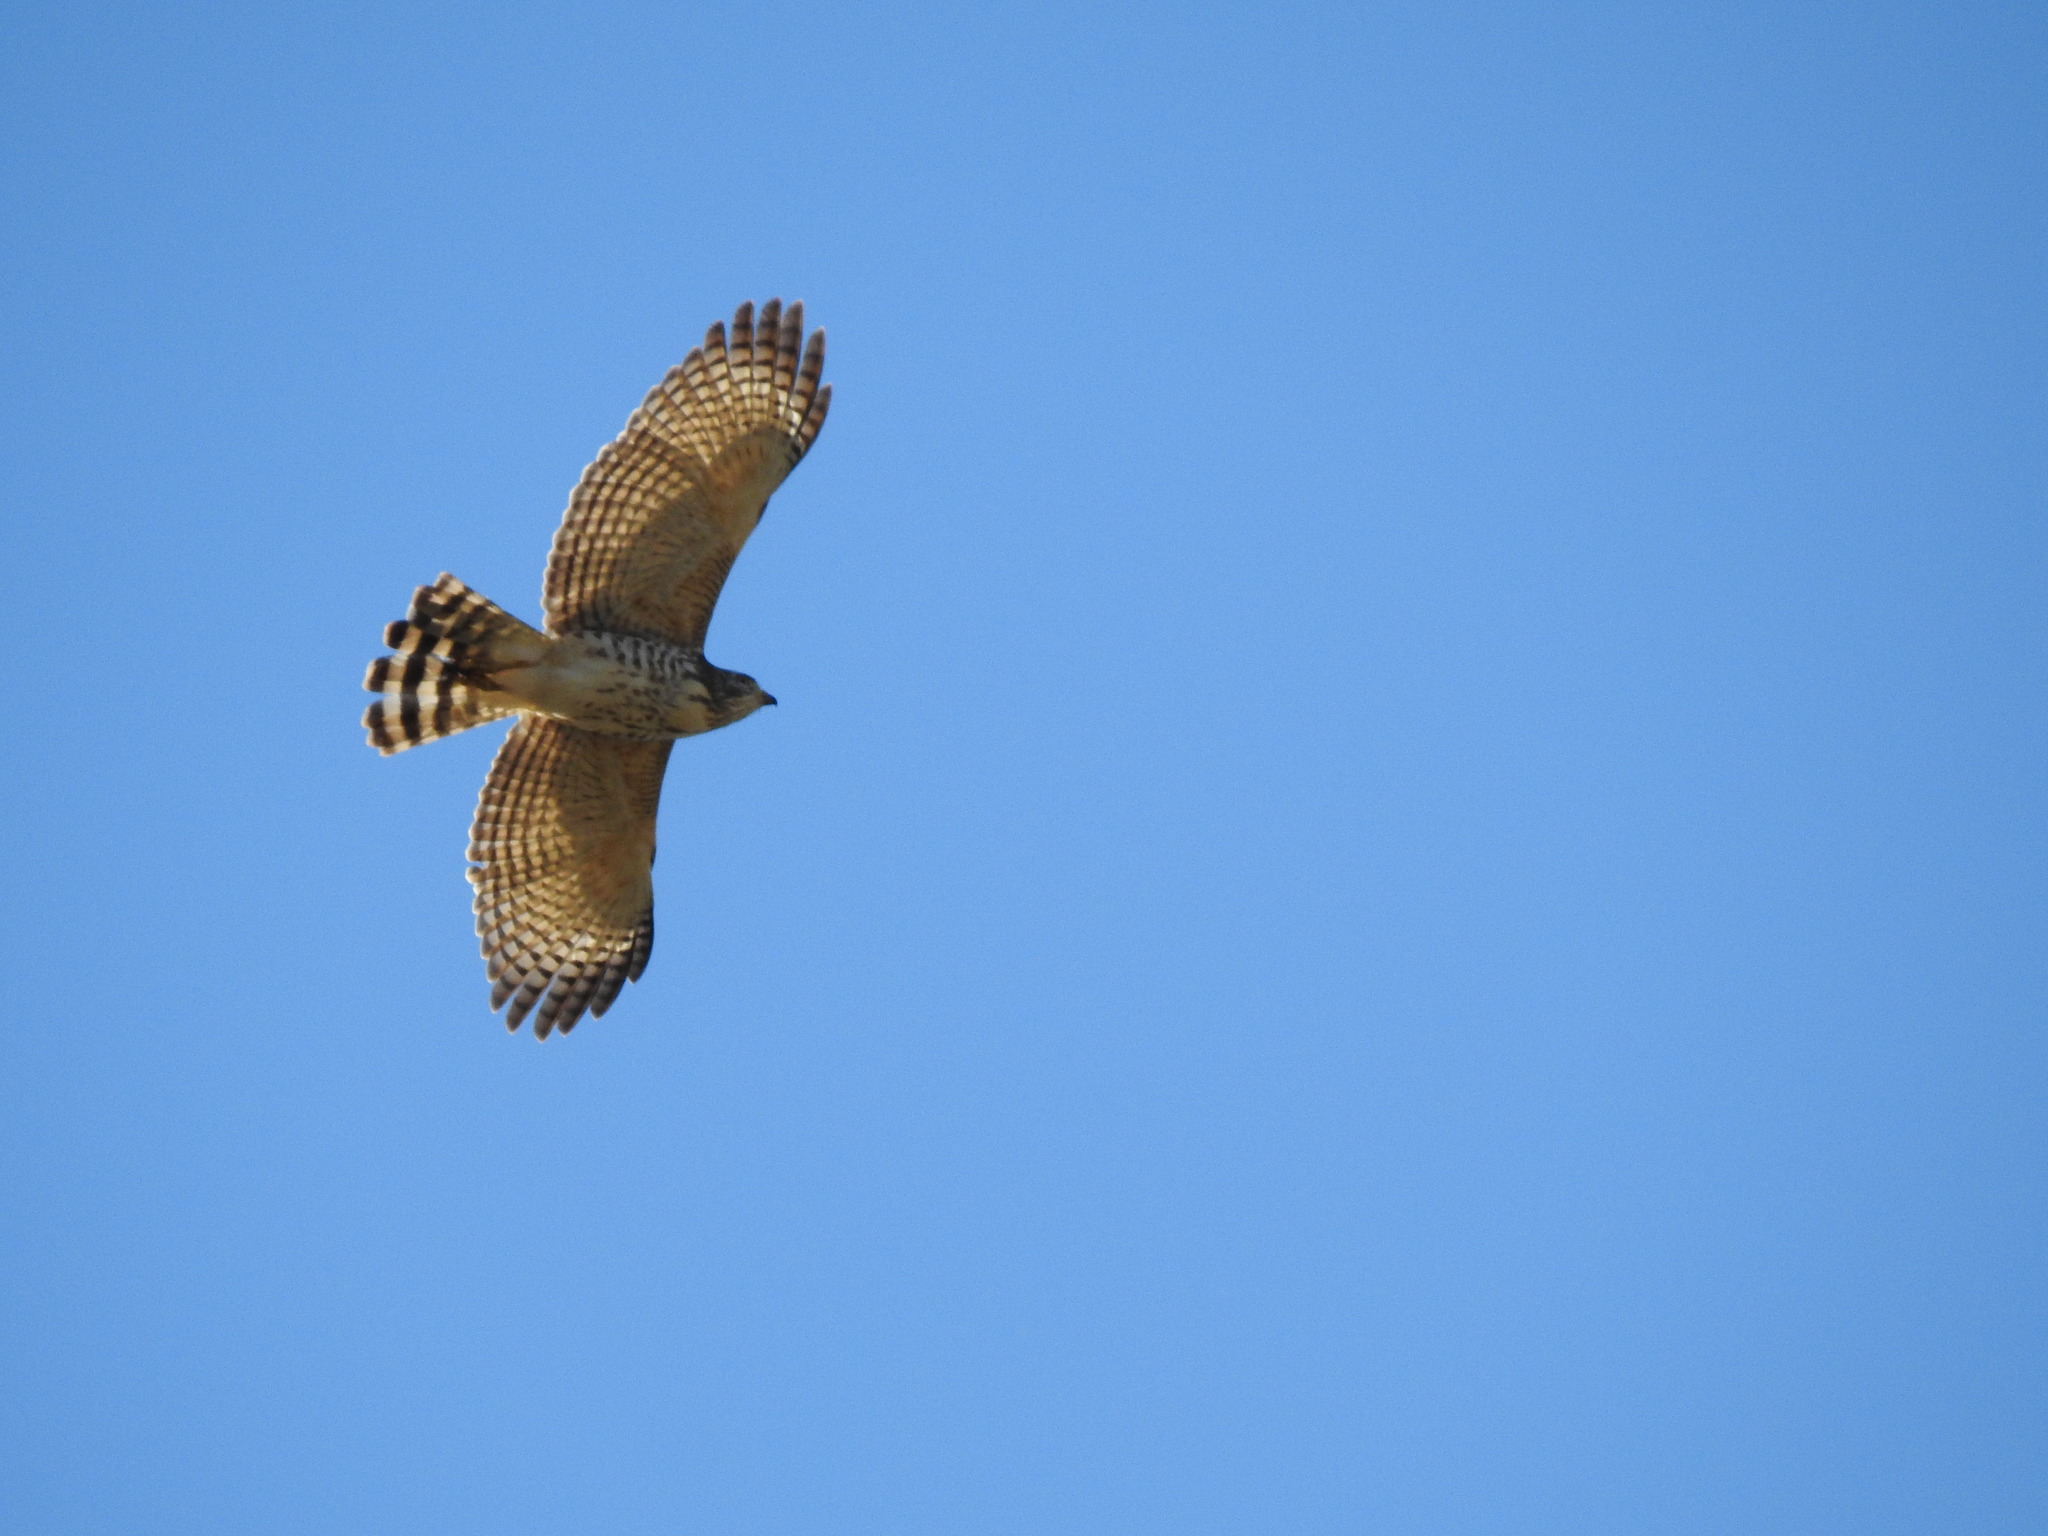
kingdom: Animalia
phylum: Chordata
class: Aves
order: Accipitriformes
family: Accipitridae
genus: Rupornis
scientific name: Rupornis magnirostris
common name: Roadside hawk
